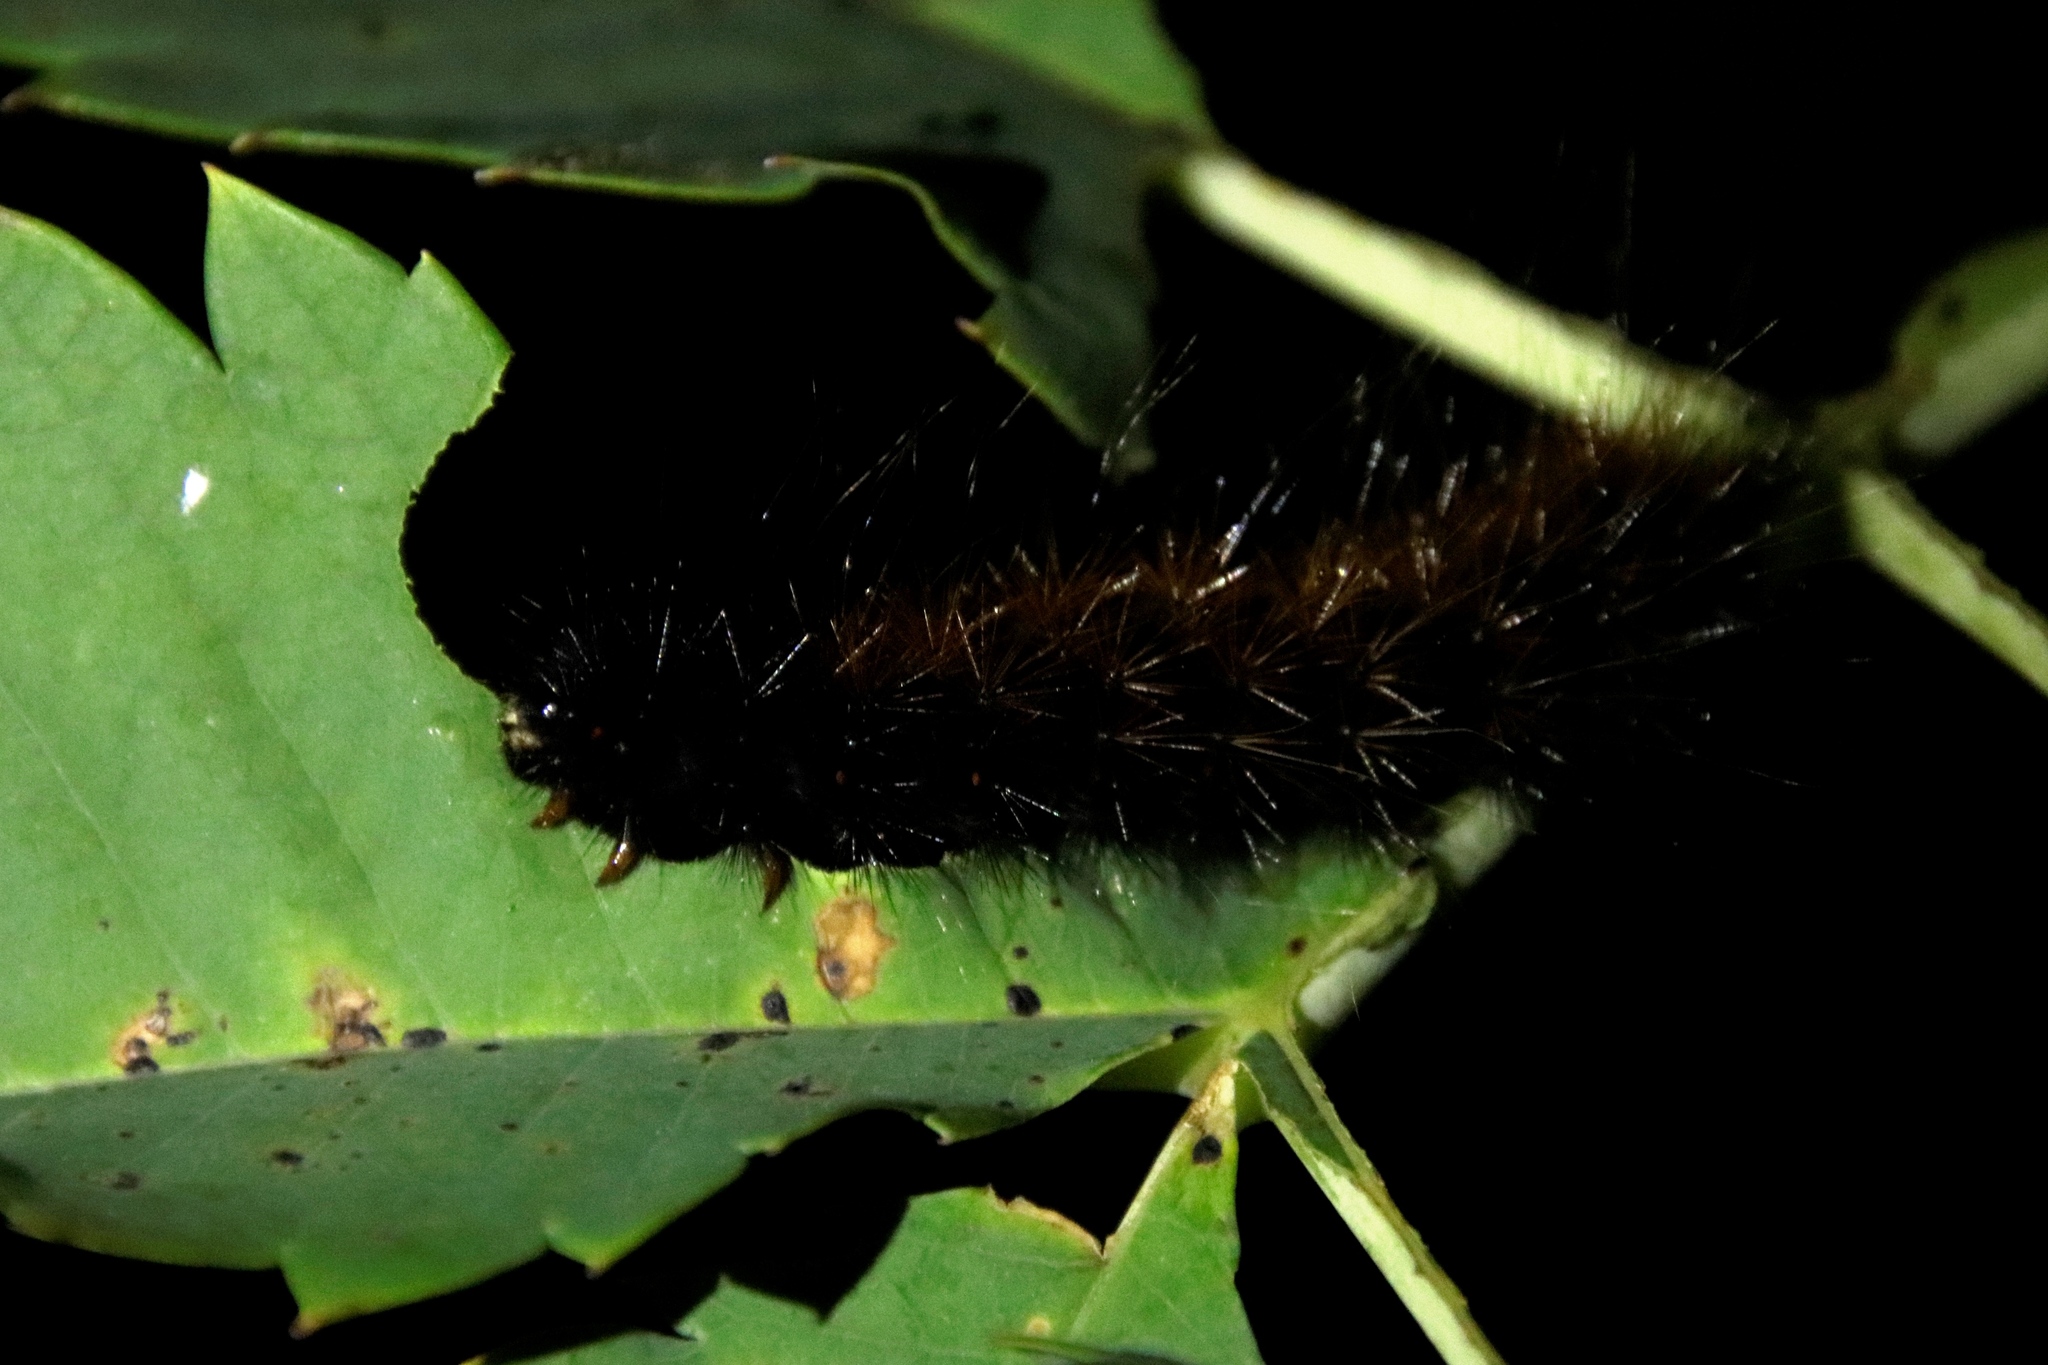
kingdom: Animalia
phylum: Arthropoda
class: Insecta
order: Lepidoptera
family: Erebidae
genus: Rhodogastria
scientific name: Rhodogastria amasis
